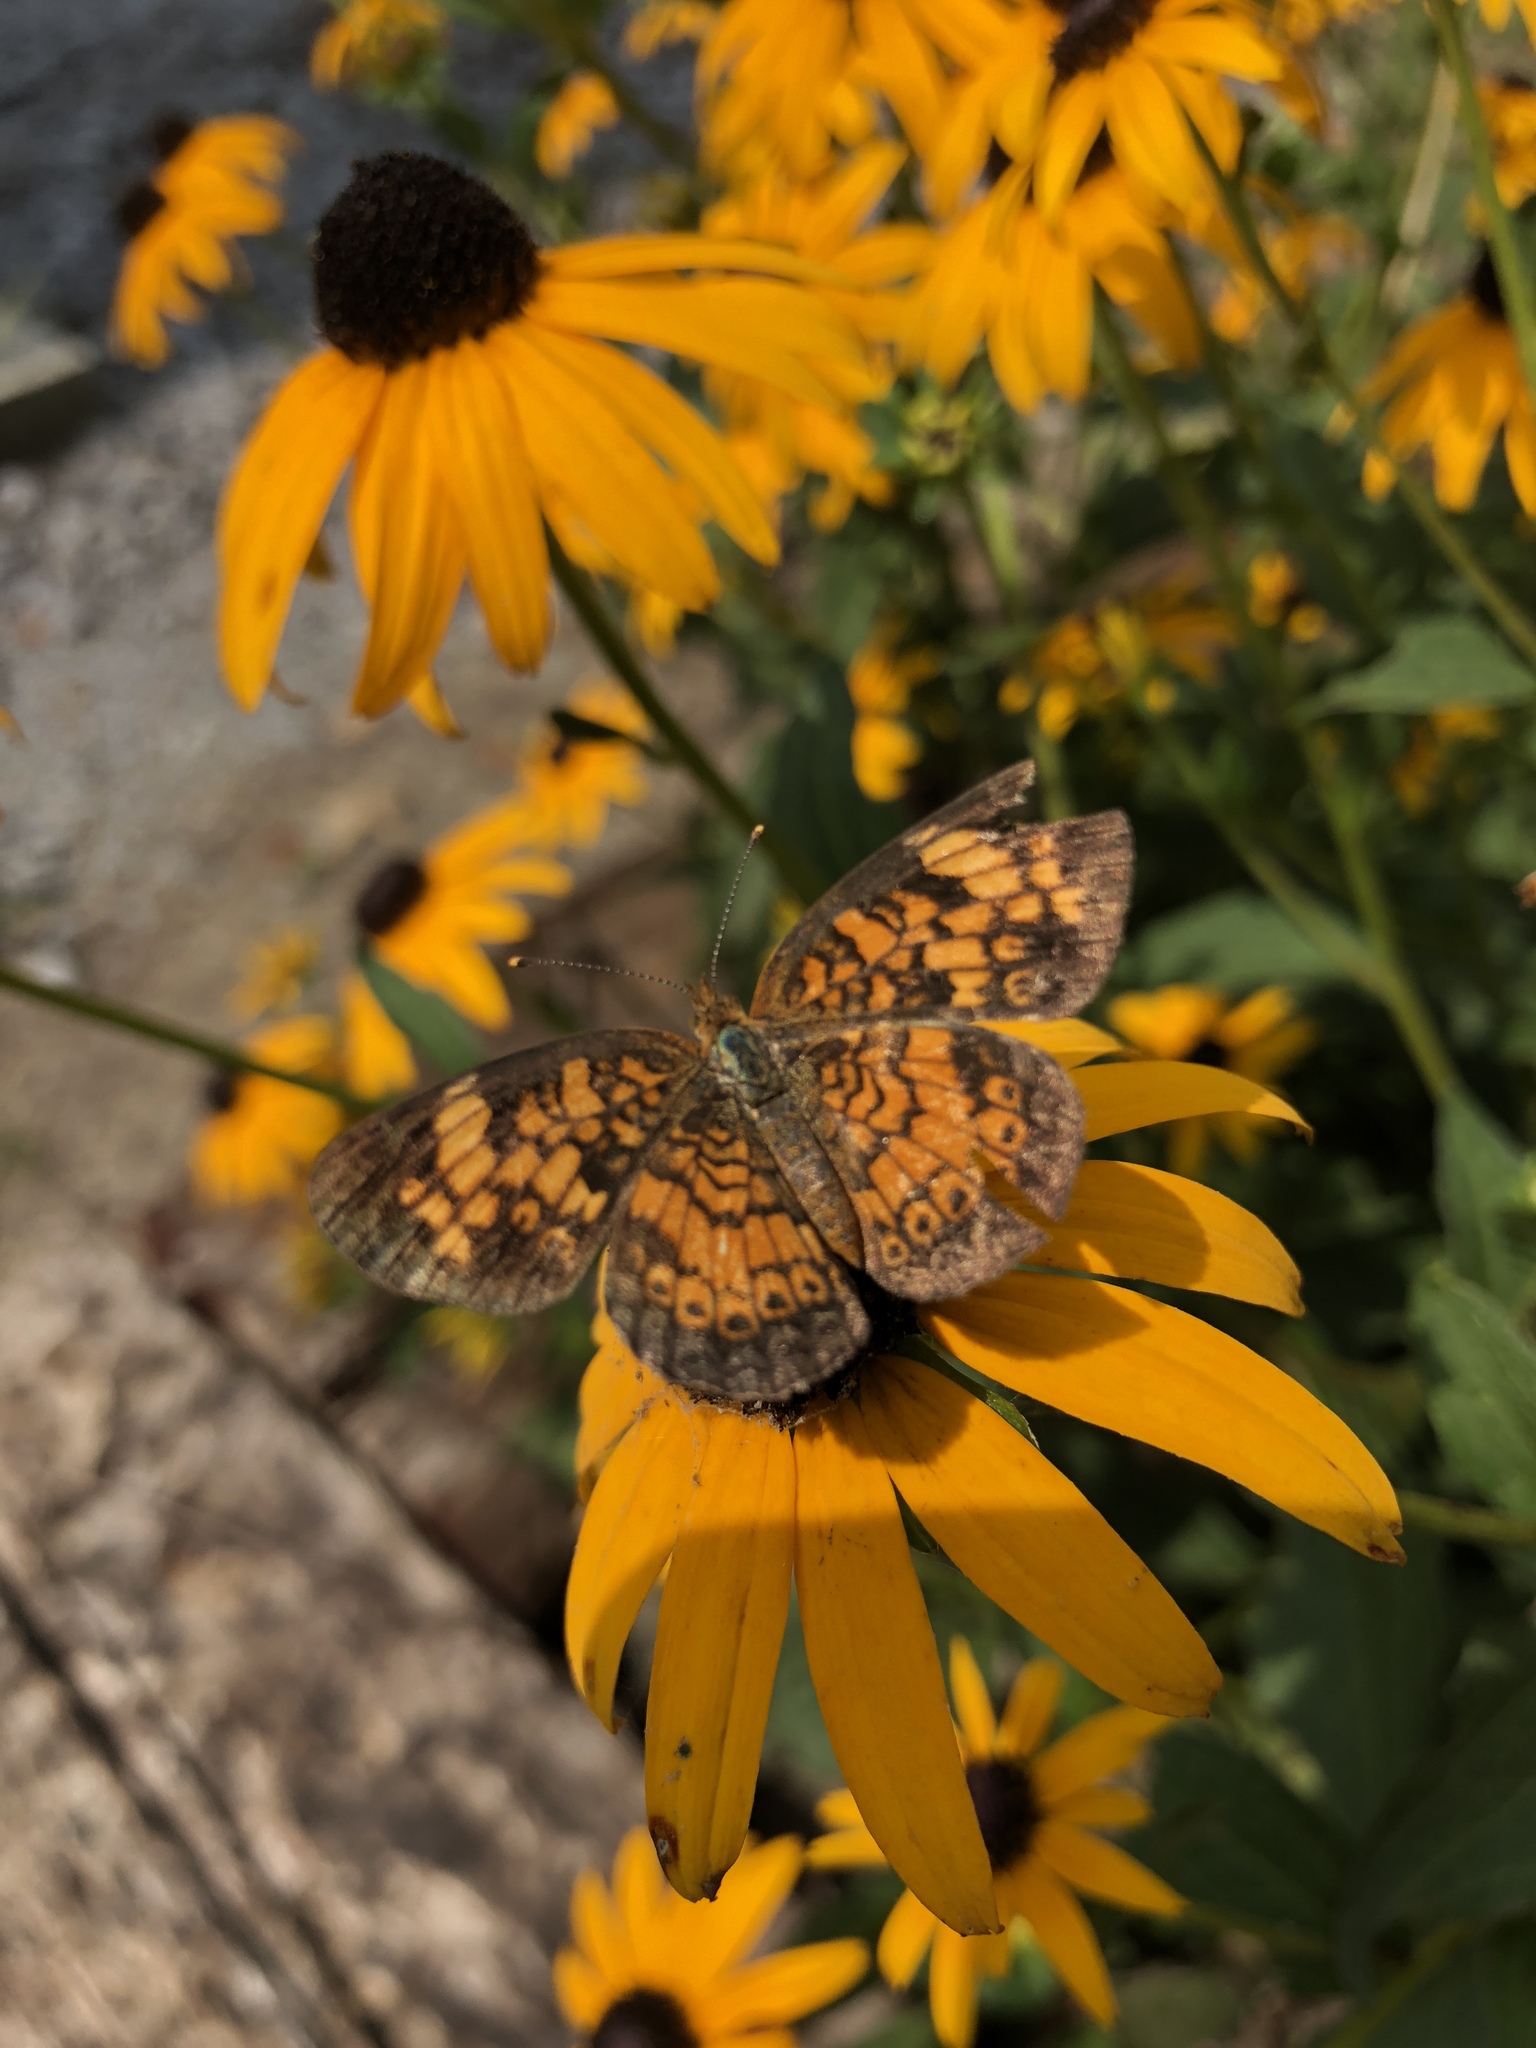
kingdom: Animalia
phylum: Arthropoda
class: Insecta
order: Lepidoptera
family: Nymphalidae
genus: Phyciodes
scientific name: Phyciodes tharos
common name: Pearl crescent
